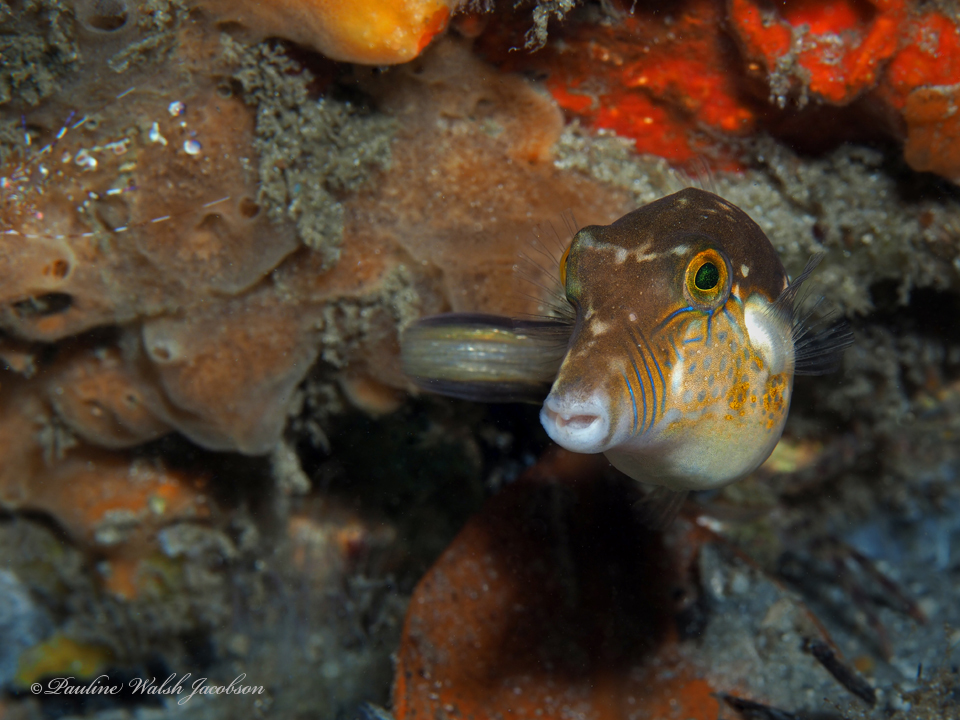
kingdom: Animalia
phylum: Chordata
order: Tetraodontiformes
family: Tetraodontidae
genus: Canthigaster
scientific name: Canthigaster rostrata
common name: Caribbean sharpnose-puffer
